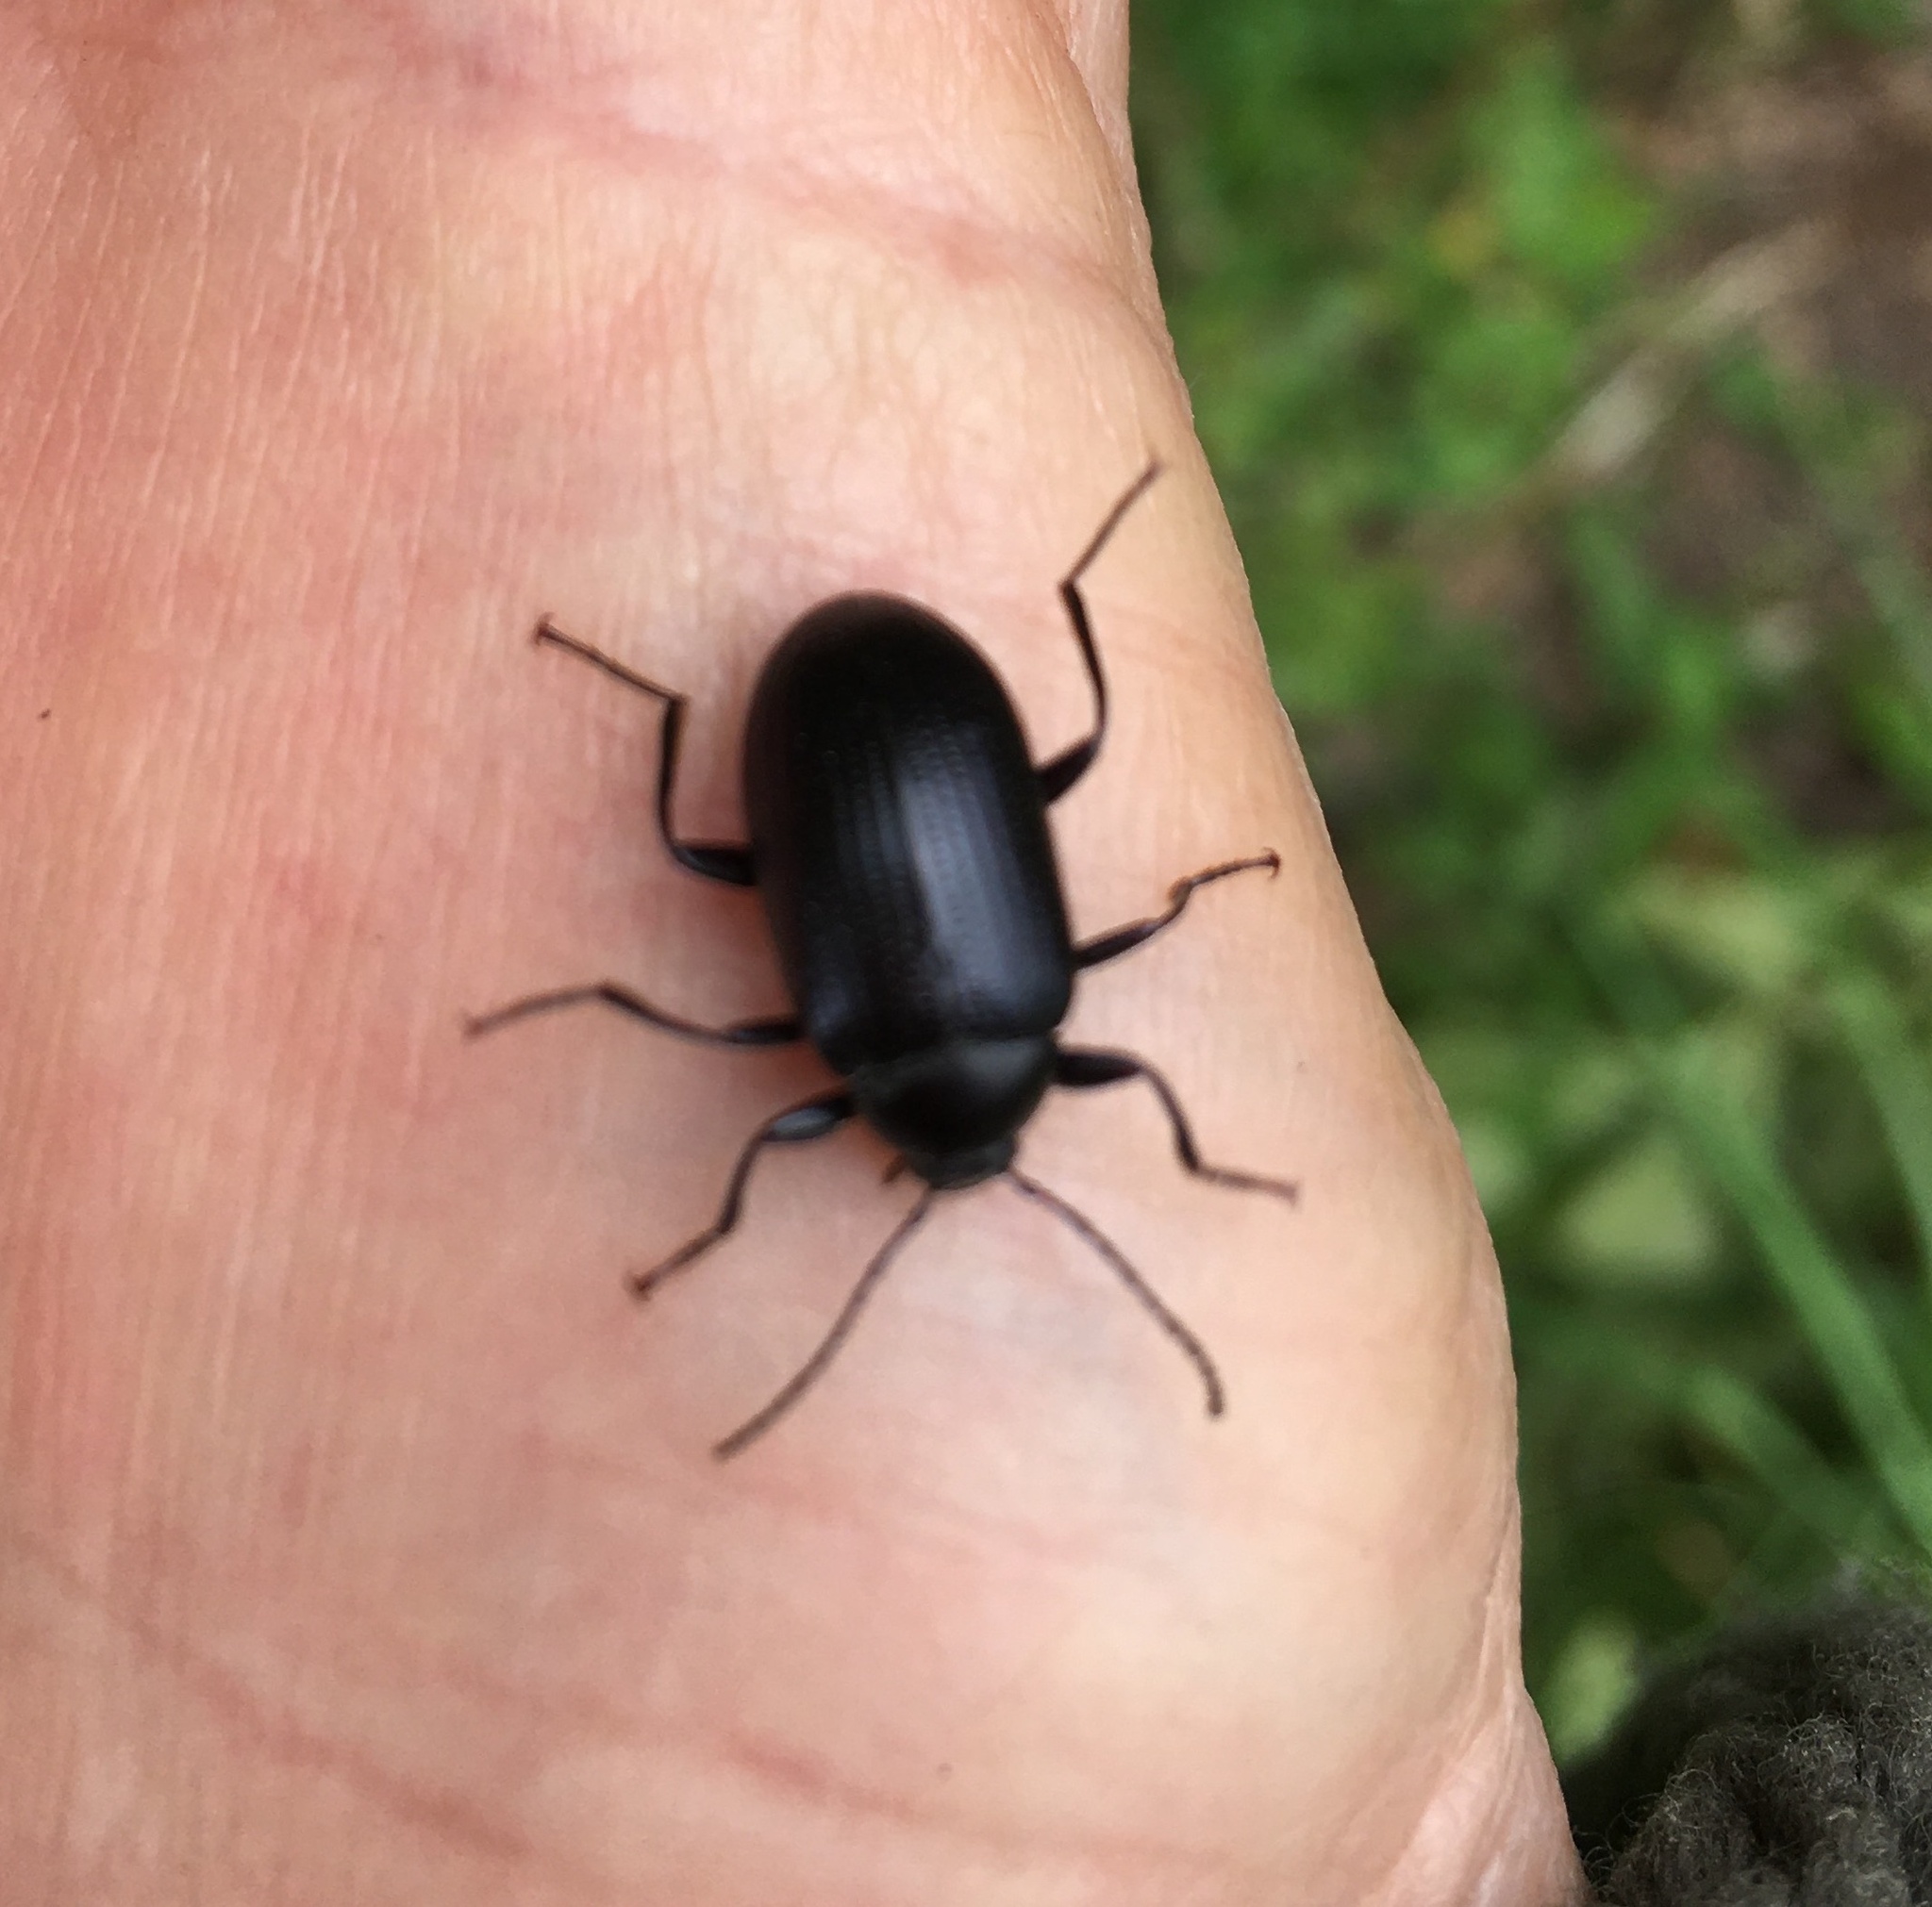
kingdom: Animalia
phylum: Arthropoda
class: Insecta
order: Coleoptera
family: Tenebrionidae
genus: Amarygmus
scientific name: Amarygmus
